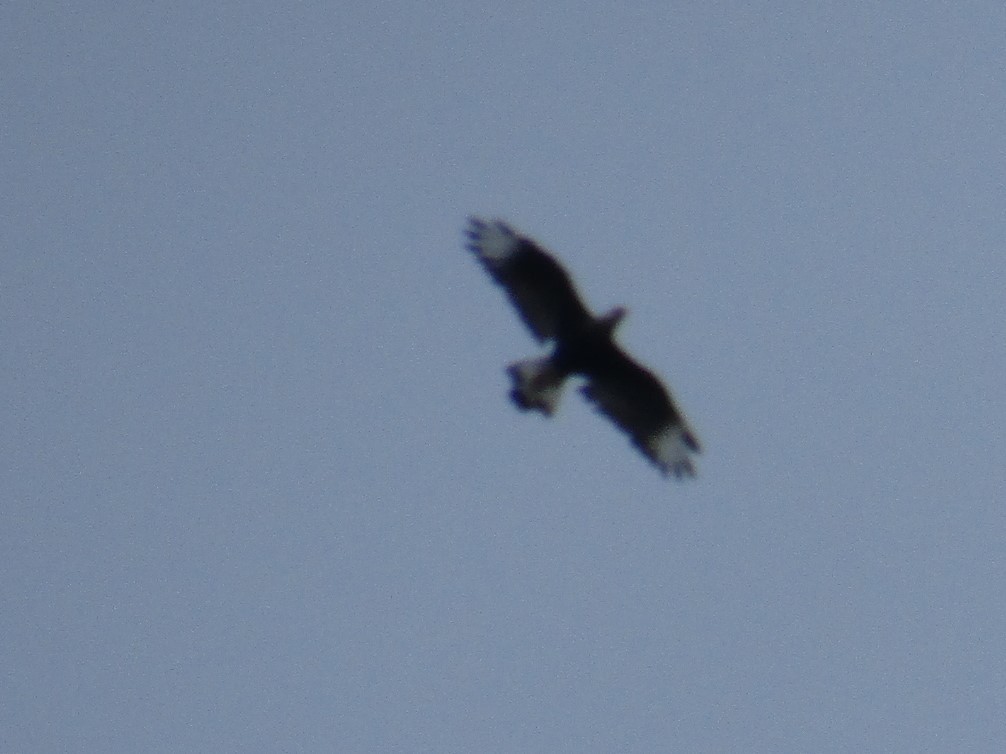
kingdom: Animalia
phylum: Chordata
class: Aves
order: Falconiformes
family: Falconidae
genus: Caracara
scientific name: Caracara plancus
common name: Southern caracara
